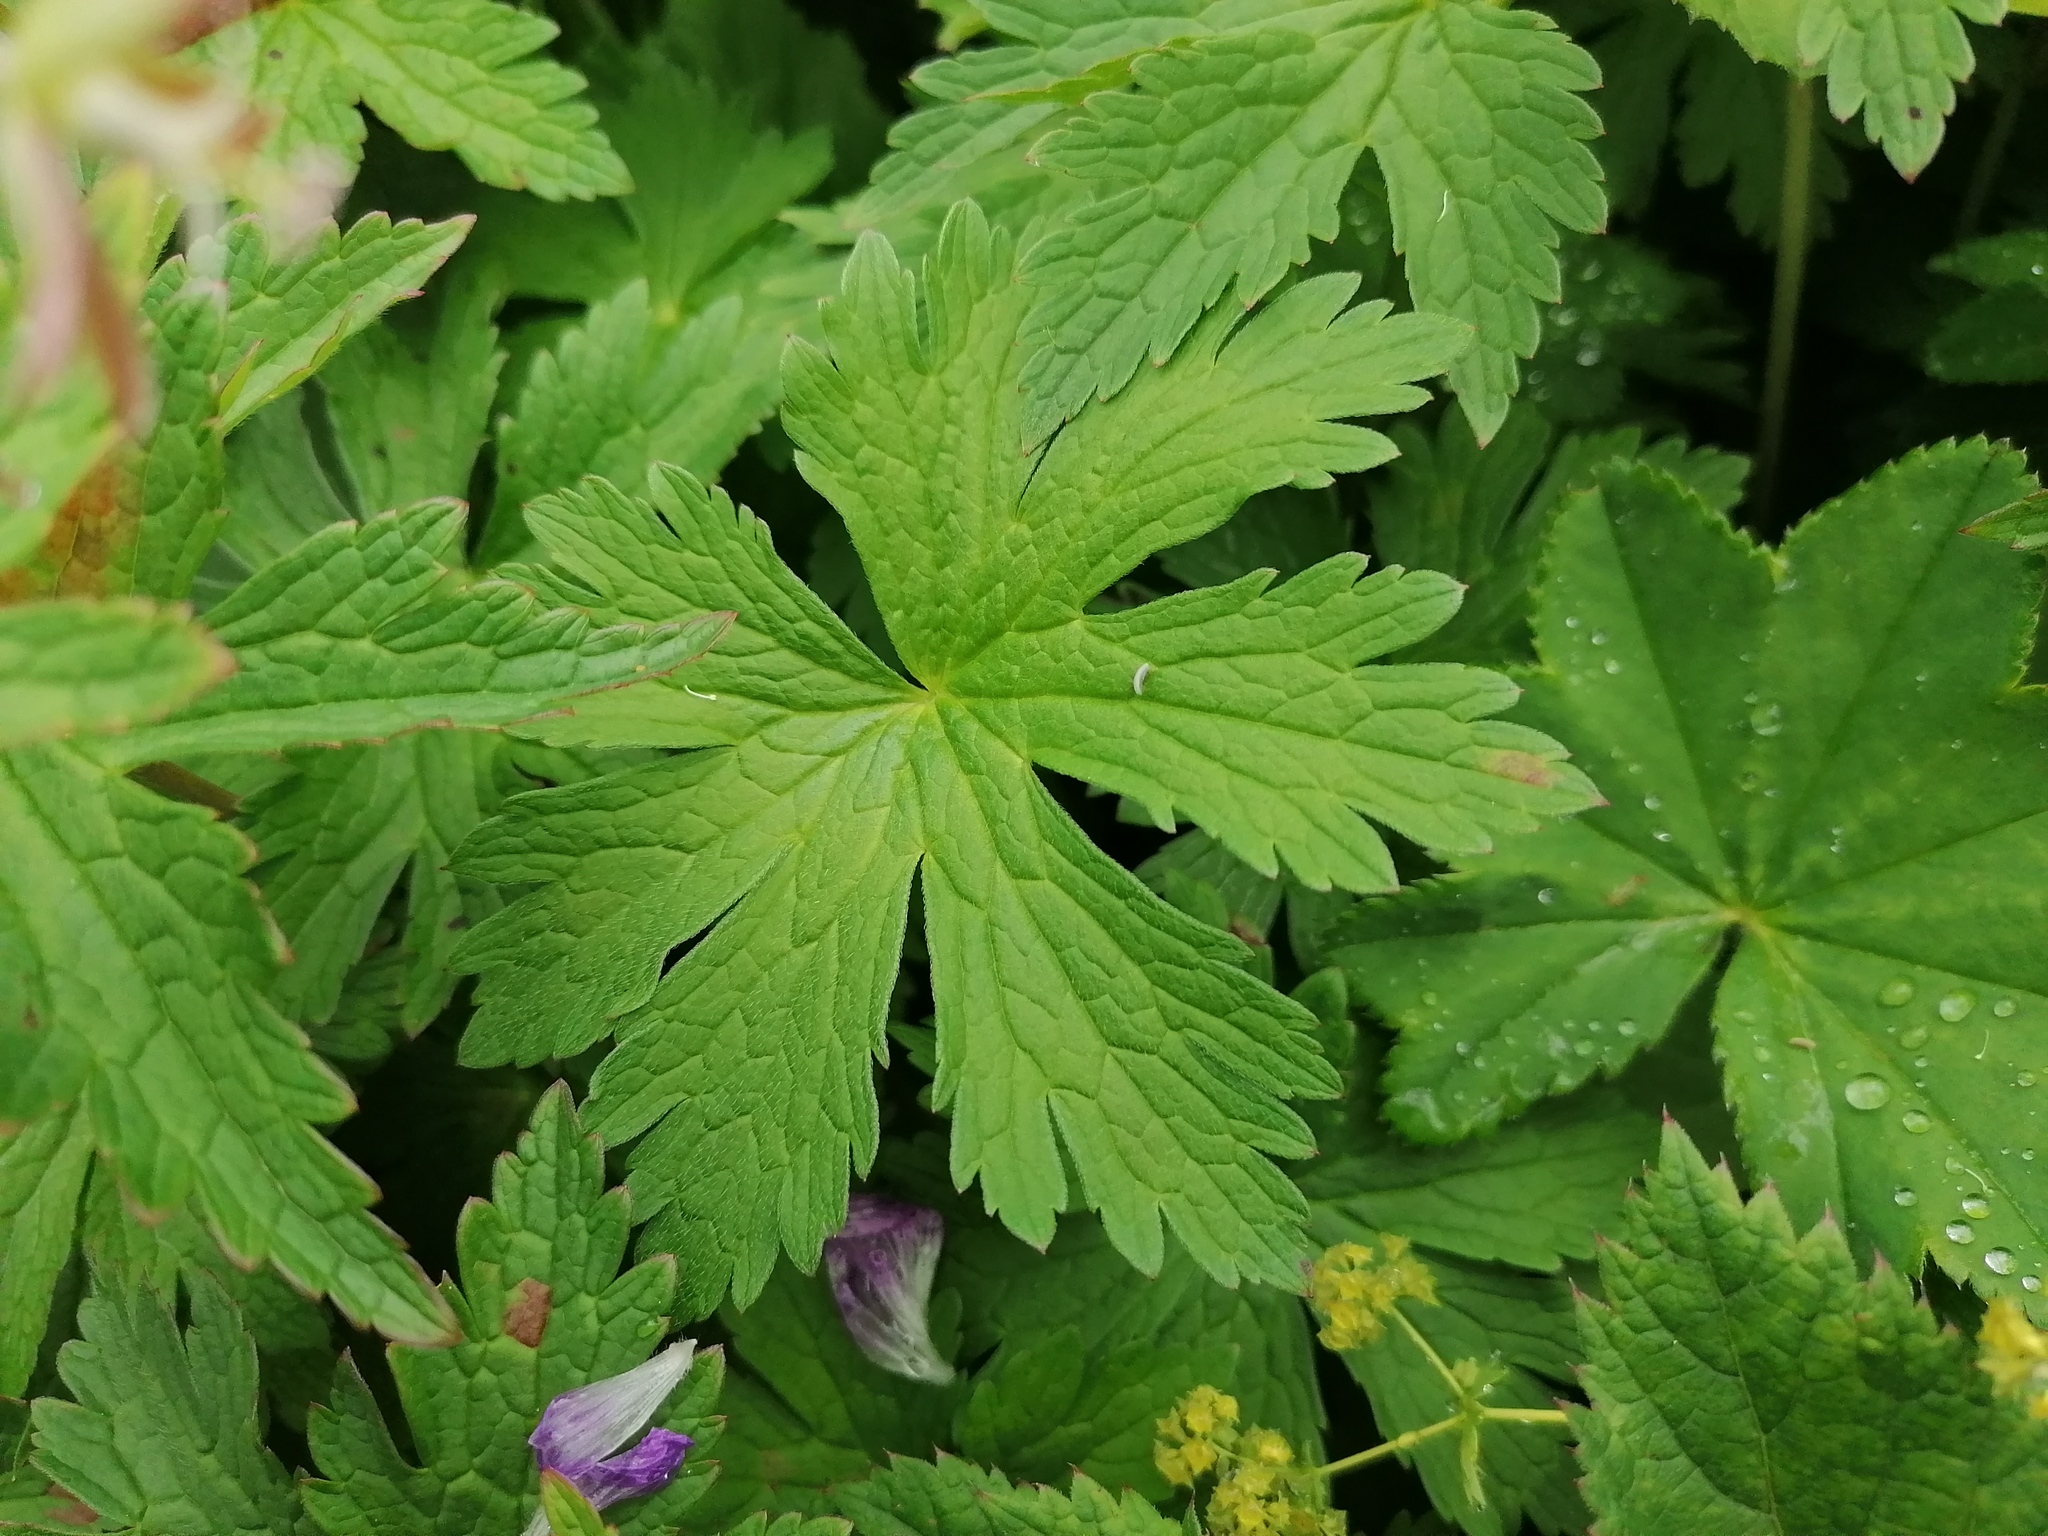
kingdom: Plantae
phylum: Tracheophyta
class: Magnoliopsida
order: Geraniales
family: Geraniaceae
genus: Geranium
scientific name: Geranium sylvaticum
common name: Wood crane's-bill
